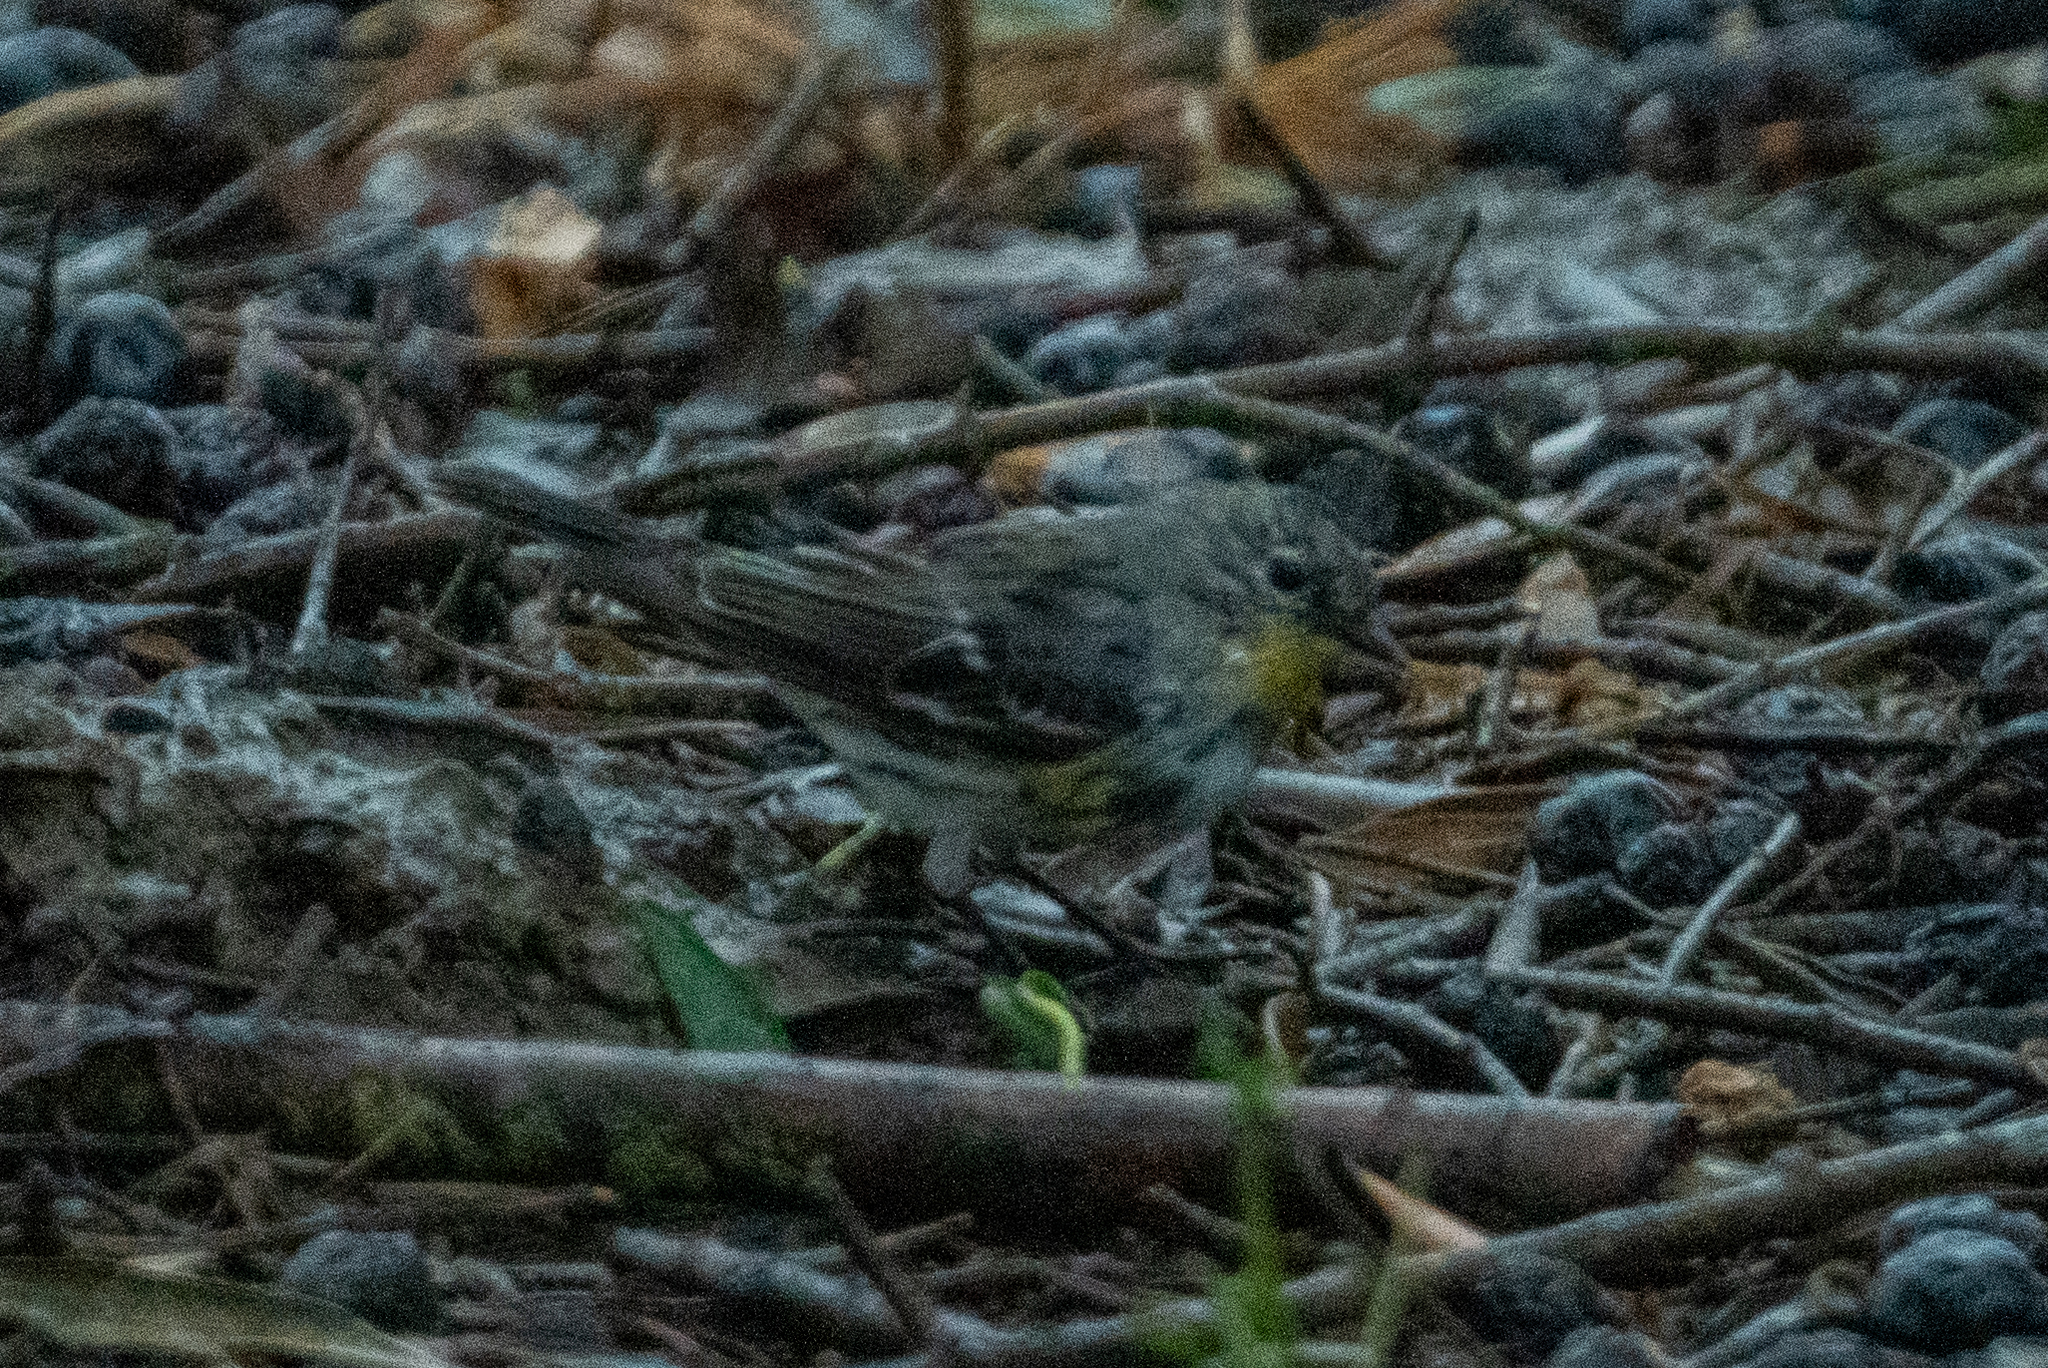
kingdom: Animalia
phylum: Chordata
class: Aves
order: Passeriformes
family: Parulidae
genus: Setophaga
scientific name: Setophaga coronata
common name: Myrtle warbler
